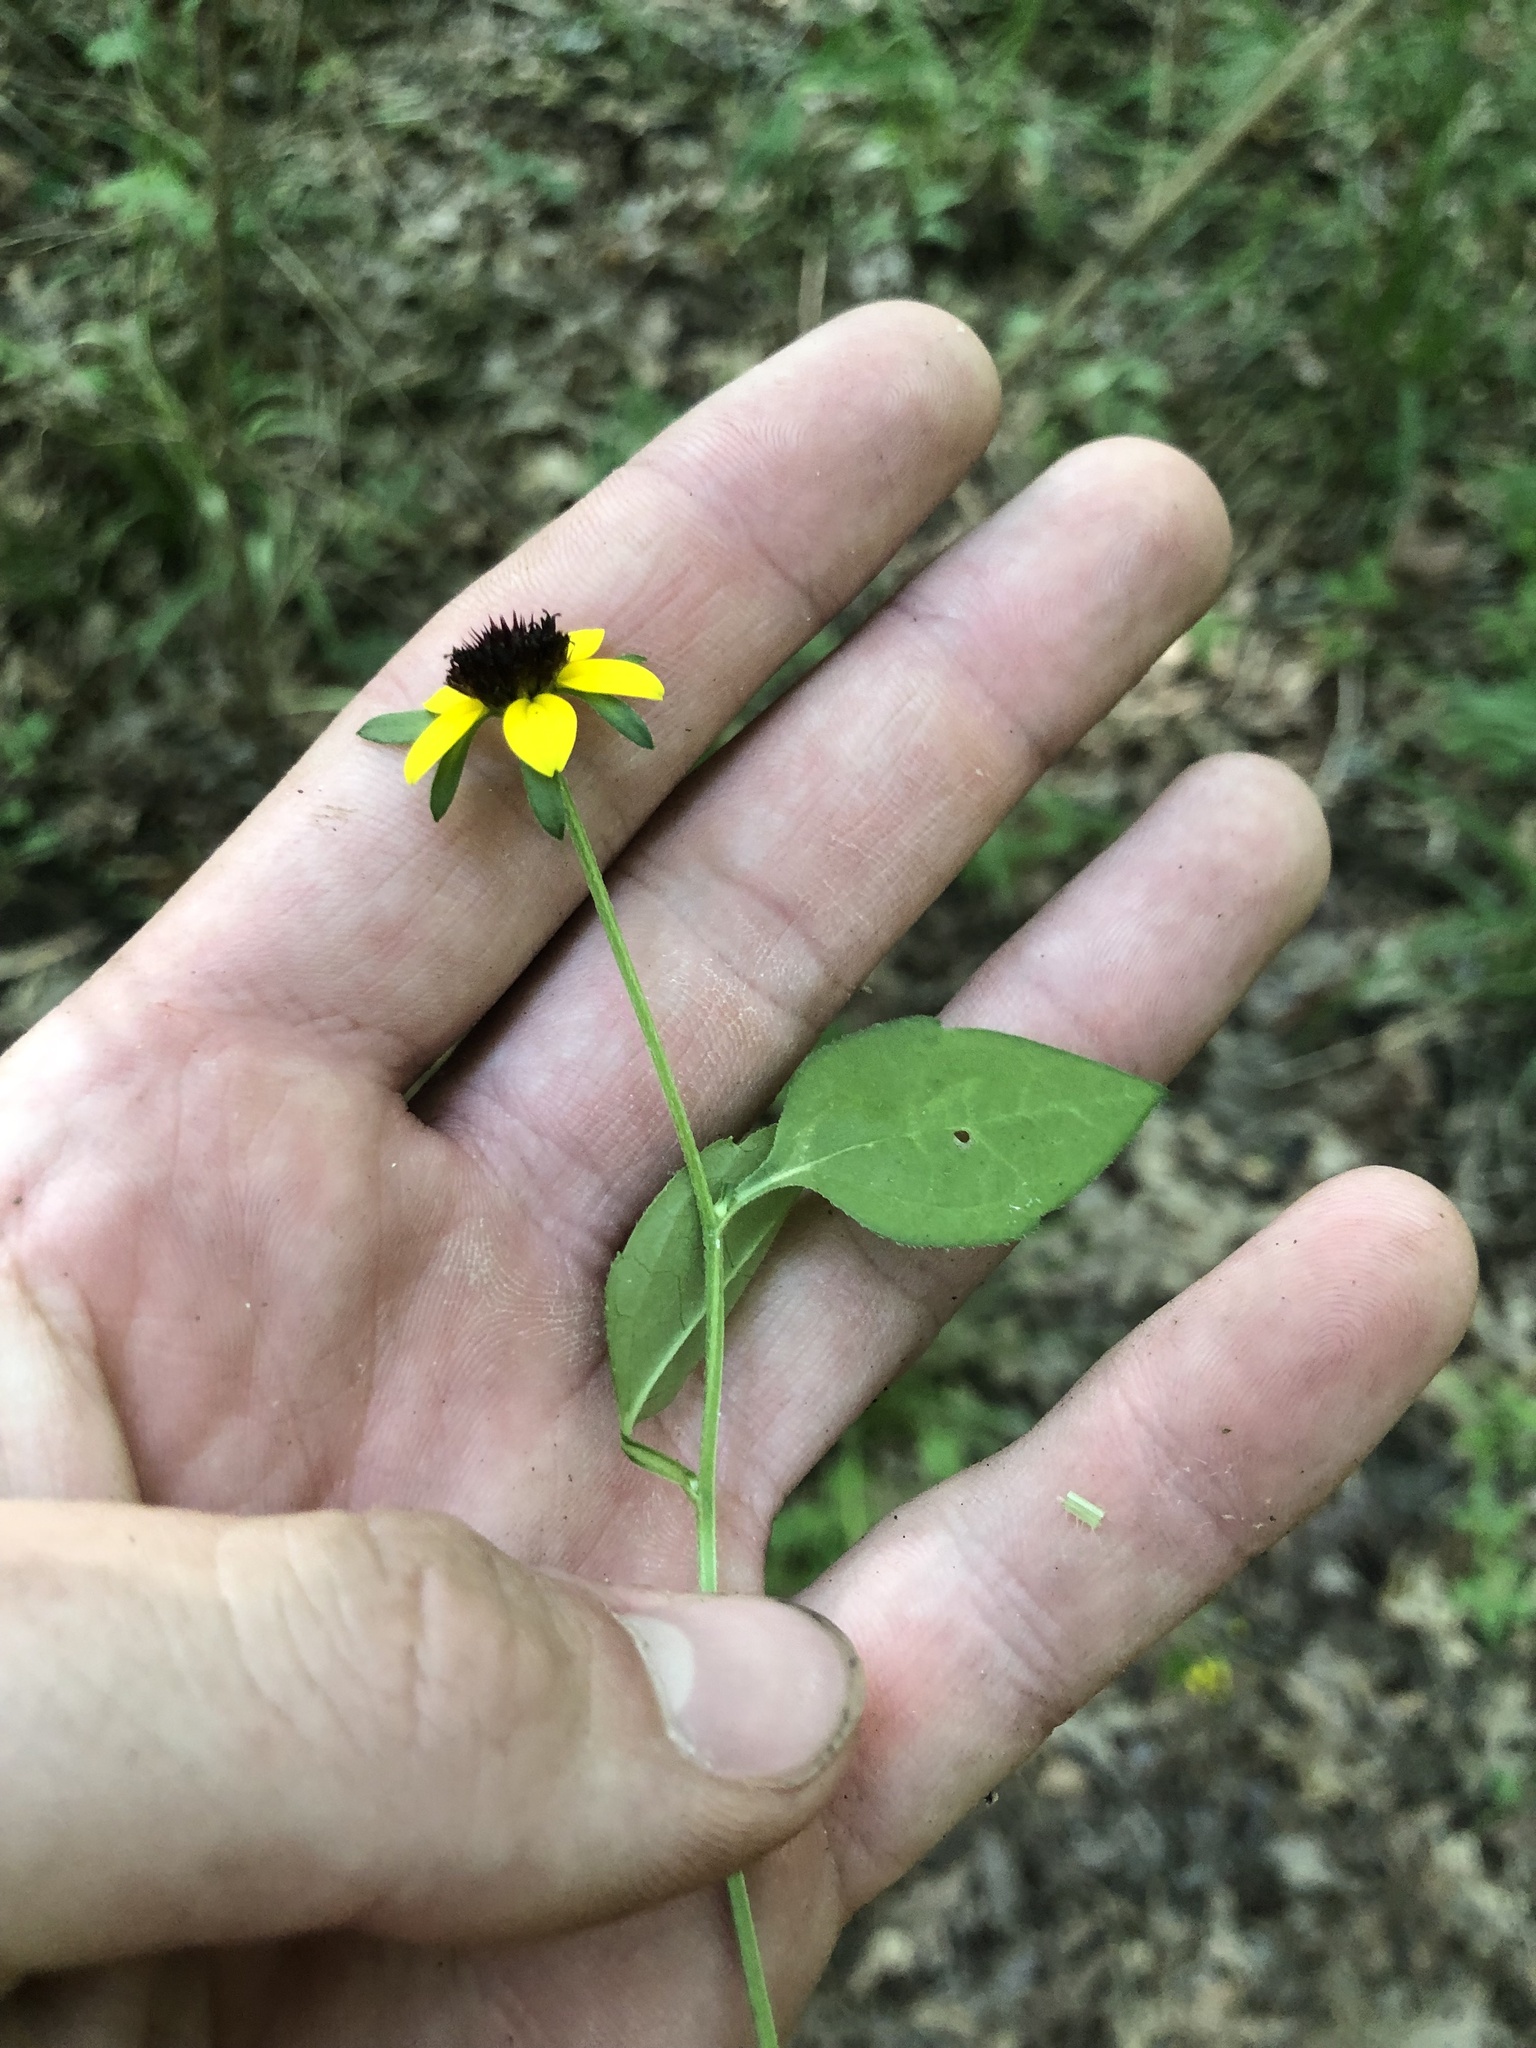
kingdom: Plantae
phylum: Tracheophyta
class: Magnoliopsida
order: Asterales
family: Asteraceae
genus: Rudbeckia
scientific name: Rudbeckia triloba
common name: Thin-leaved coneflower
